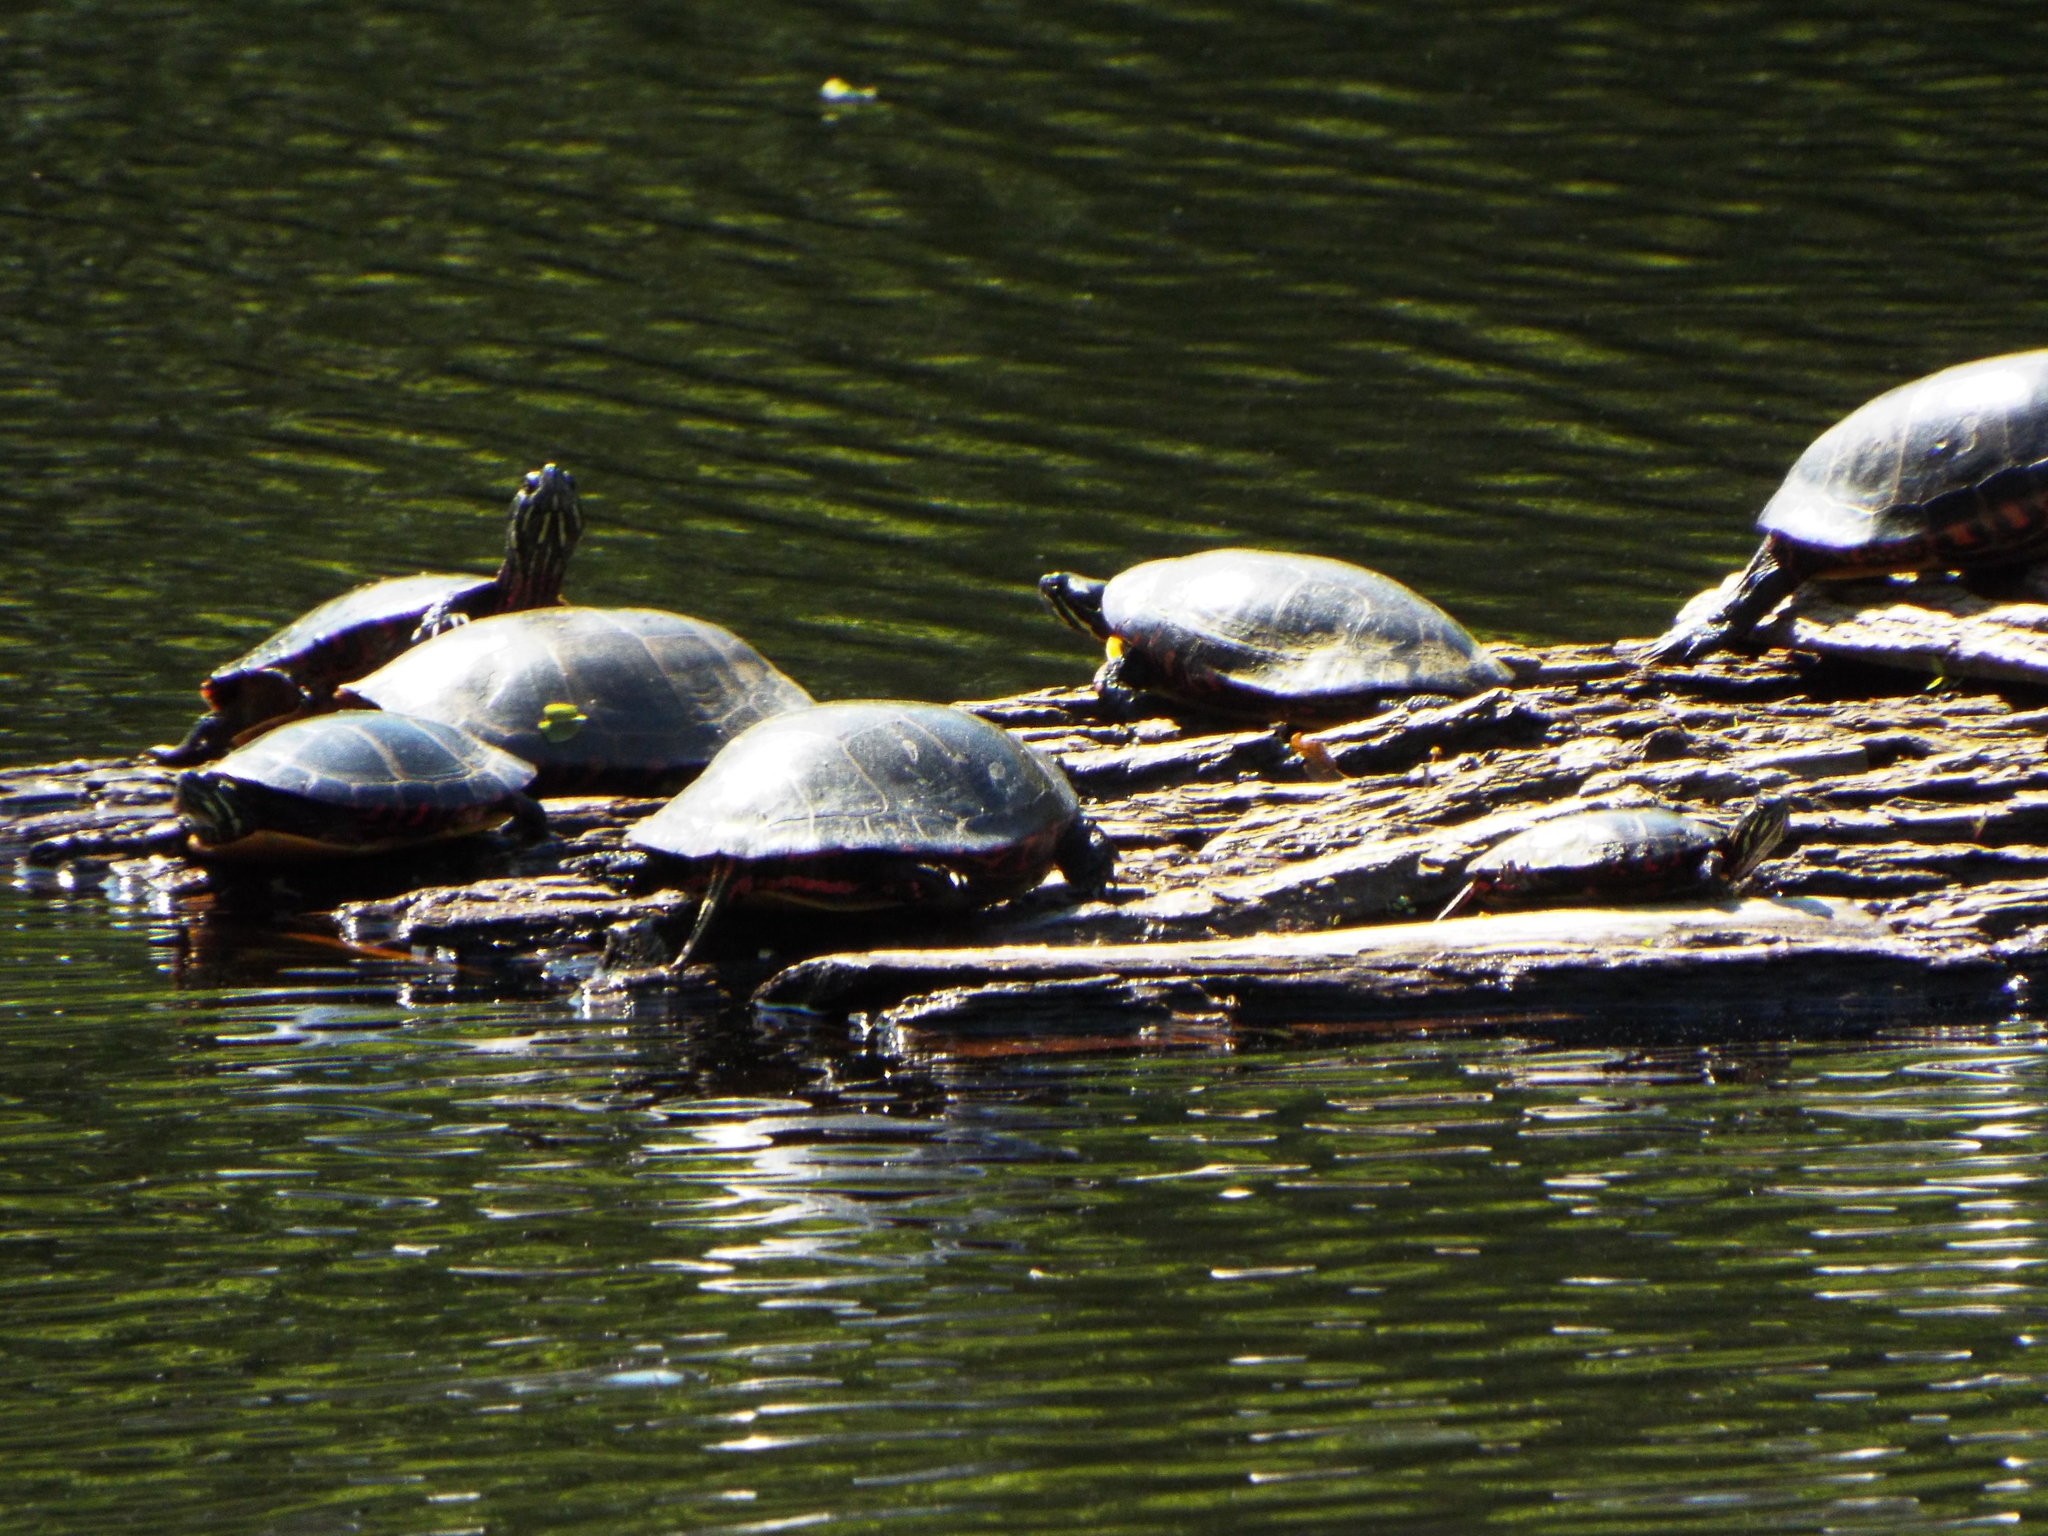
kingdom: Animalia
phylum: Chordata
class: Testudines
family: Emydidae
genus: Chrysemys
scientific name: Chrysemys picta
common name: Painted turtle
